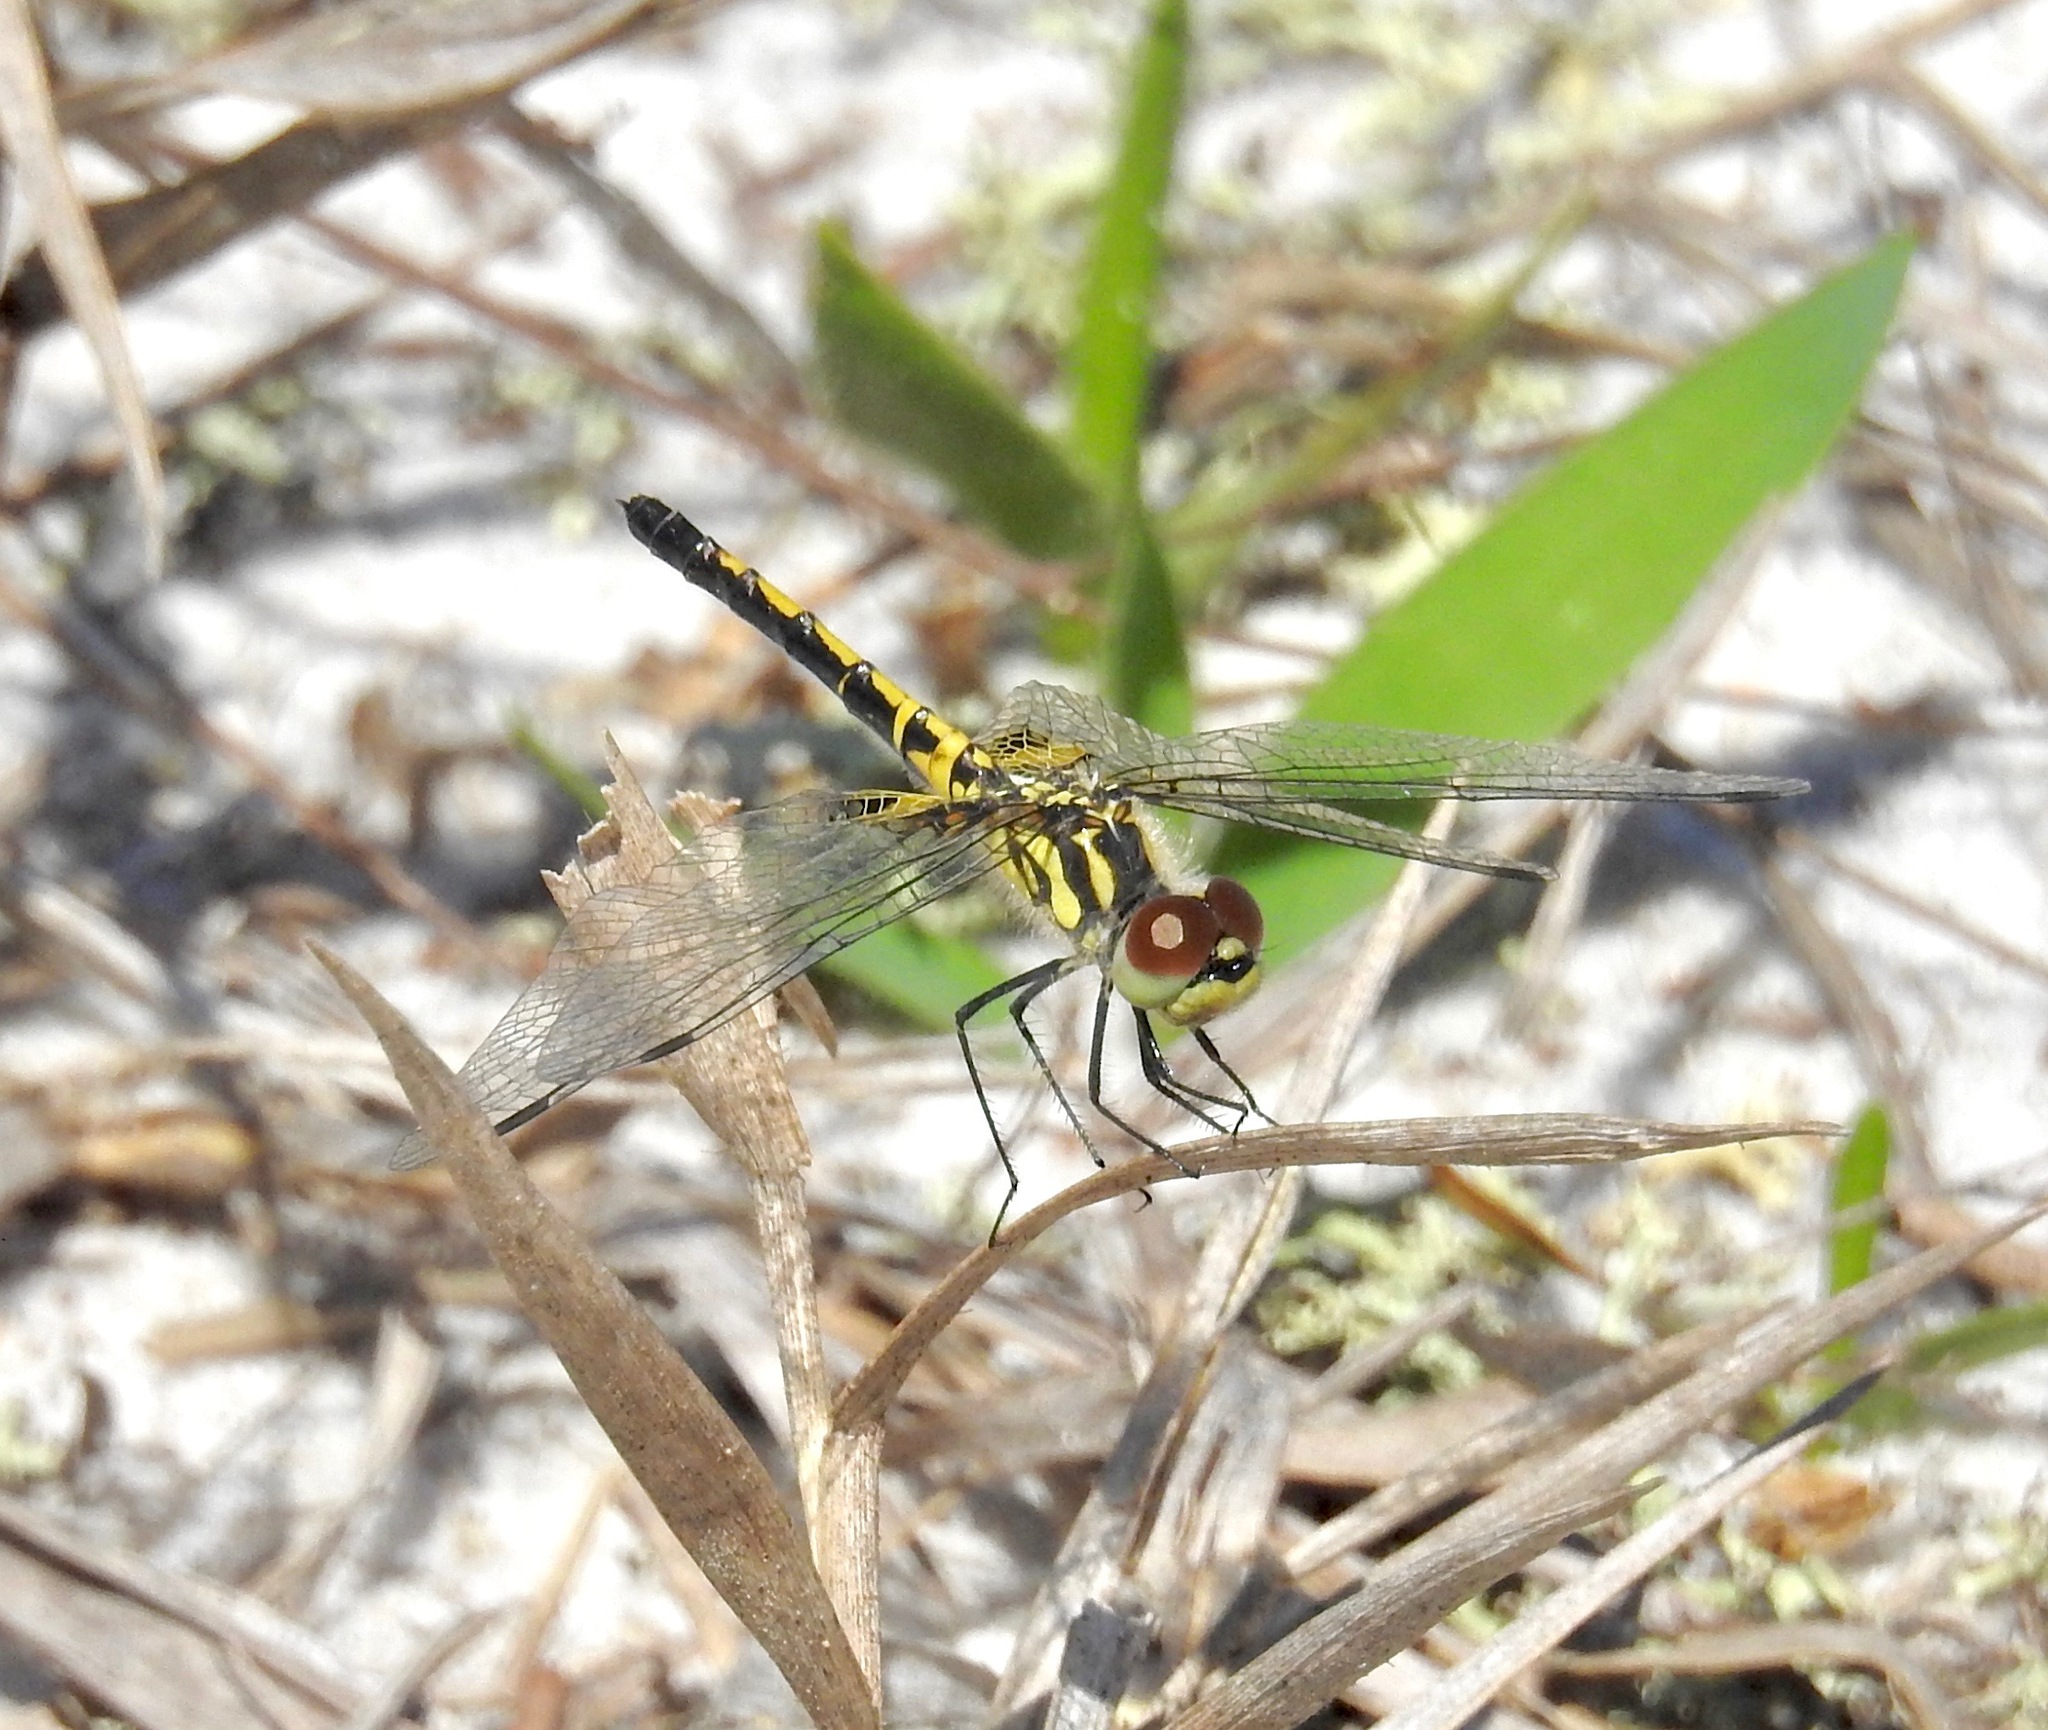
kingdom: Animalia
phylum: Arthropoda
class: Insecta
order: Odonata
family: Libellulidae
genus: Celithemis
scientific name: Celithemis ornata
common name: Ornate pennant
